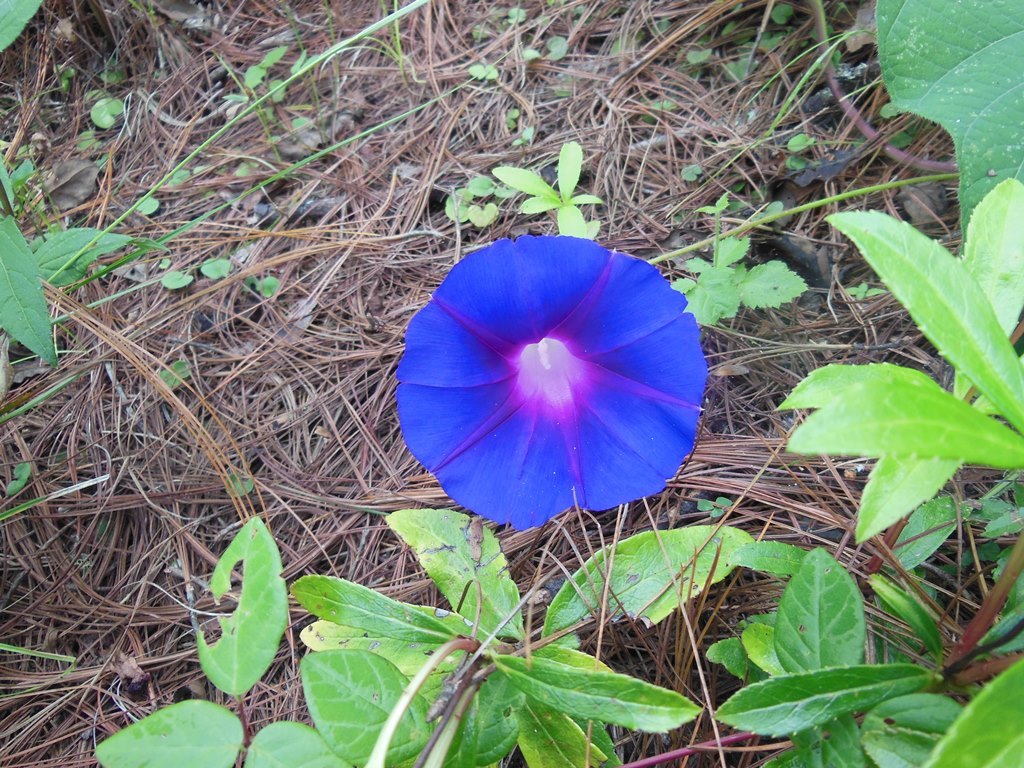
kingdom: Plantae
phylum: Tracheophyta
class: Magnoliopsida
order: Solanales
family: Convolvulaceae
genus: Ipomoea
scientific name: Ipomoea
